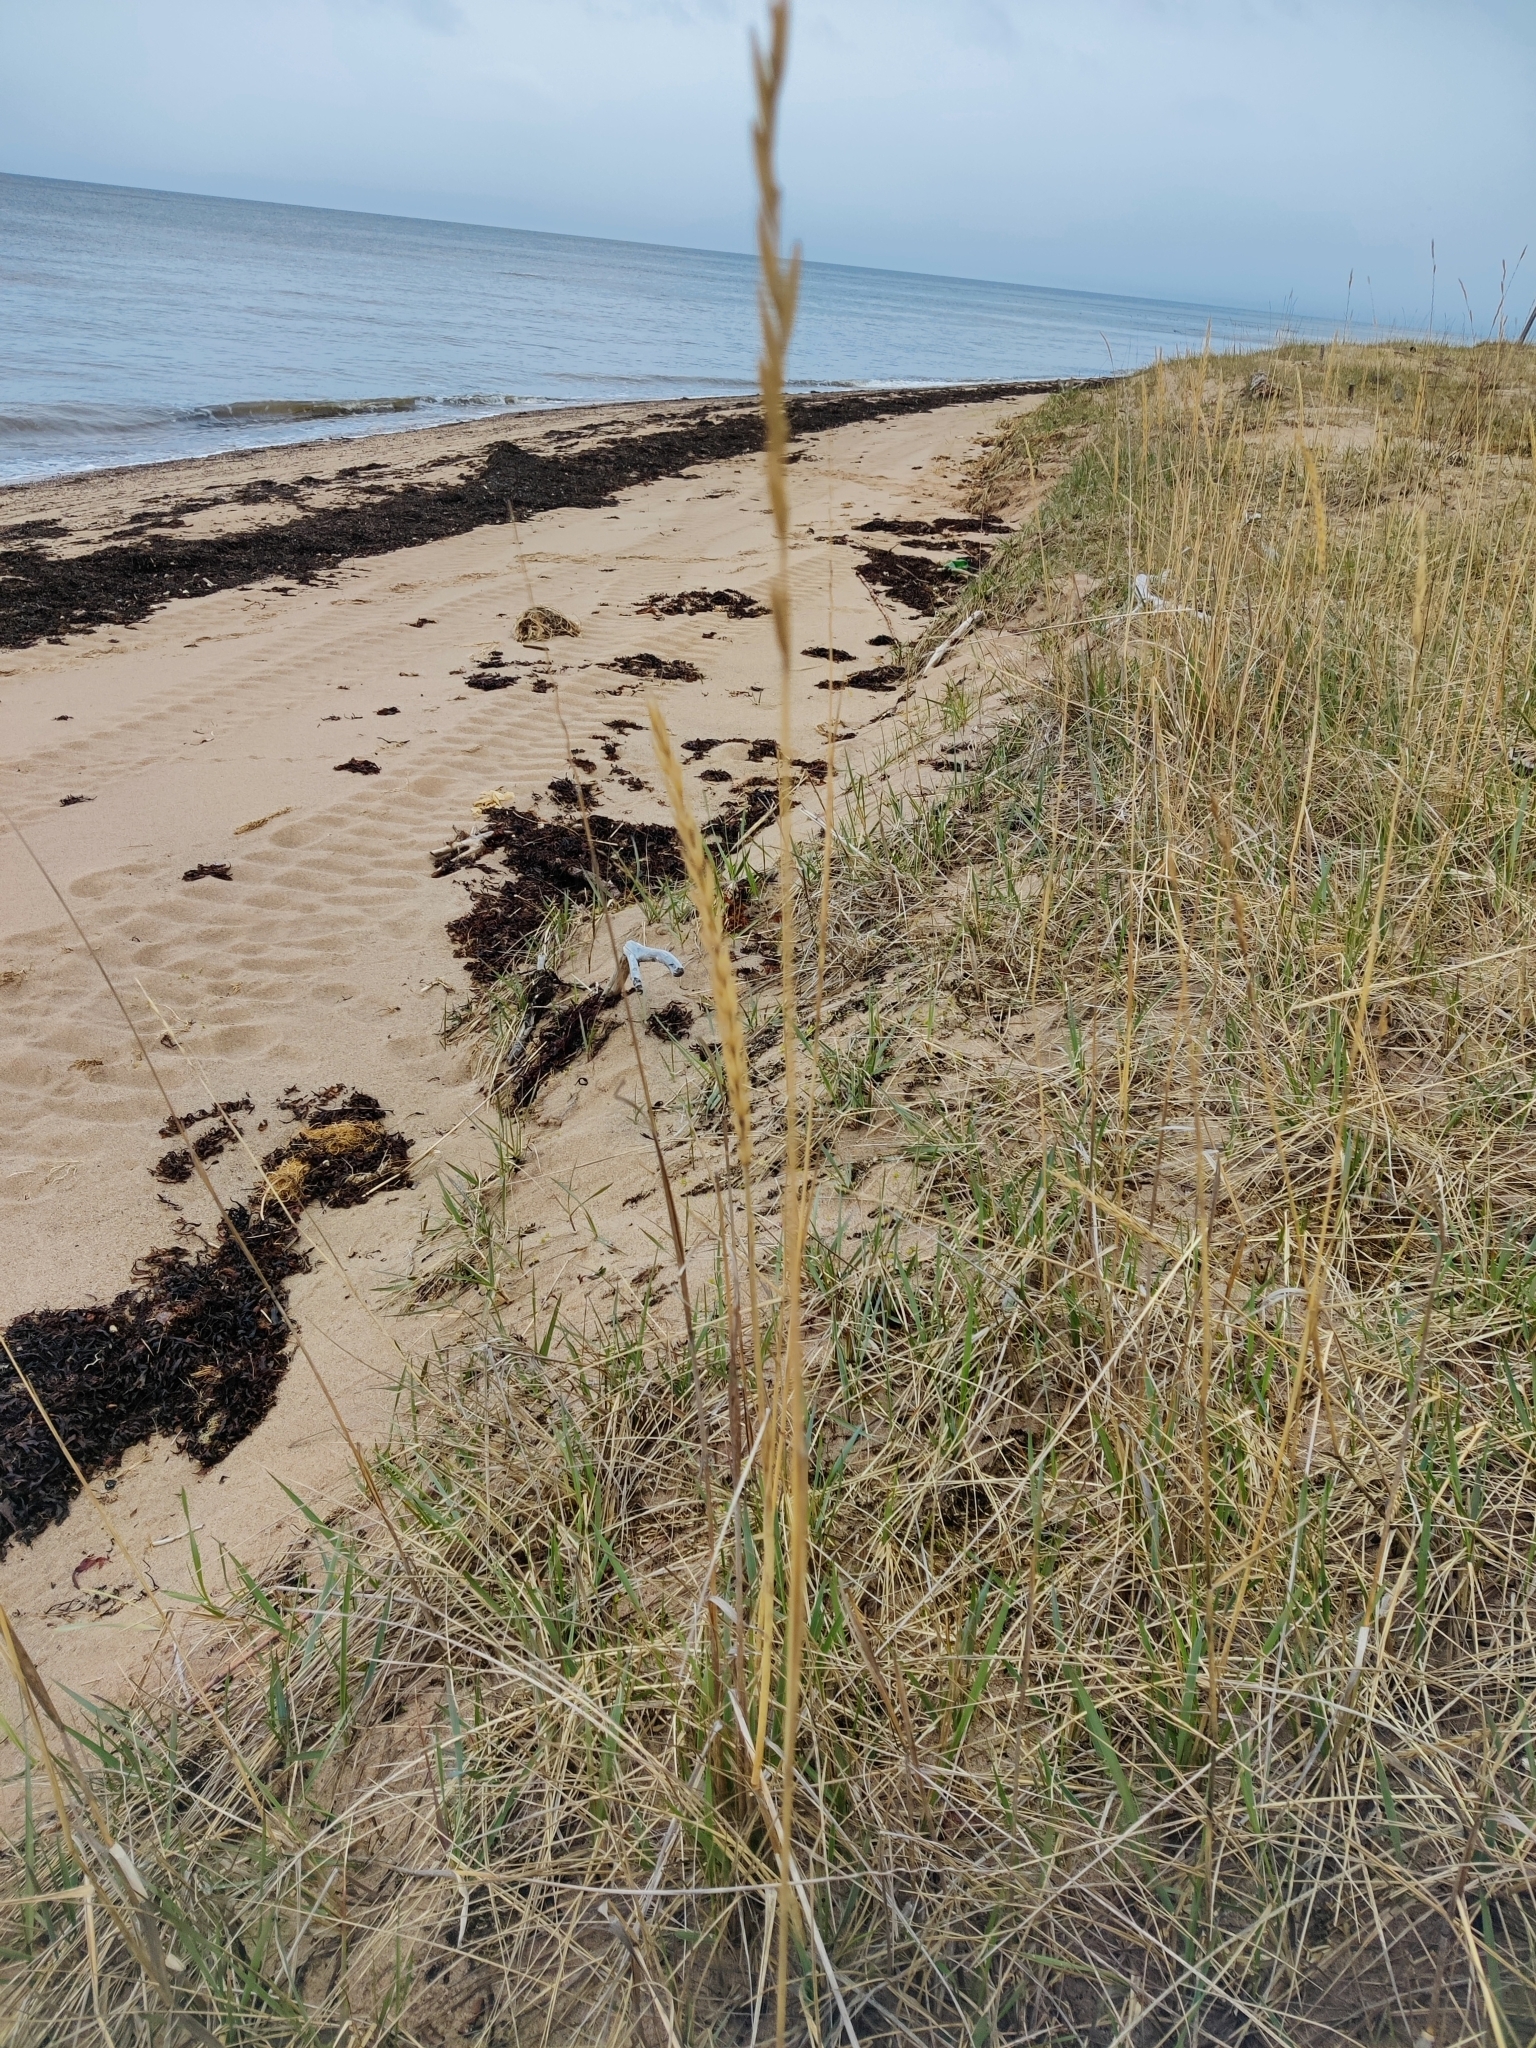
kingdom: Plantae
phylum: Tracheophyta
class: Liliopsida
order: Poales
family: Poaceae
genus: Leymus
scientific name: Leymus arenarius
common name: Lyme-grass
